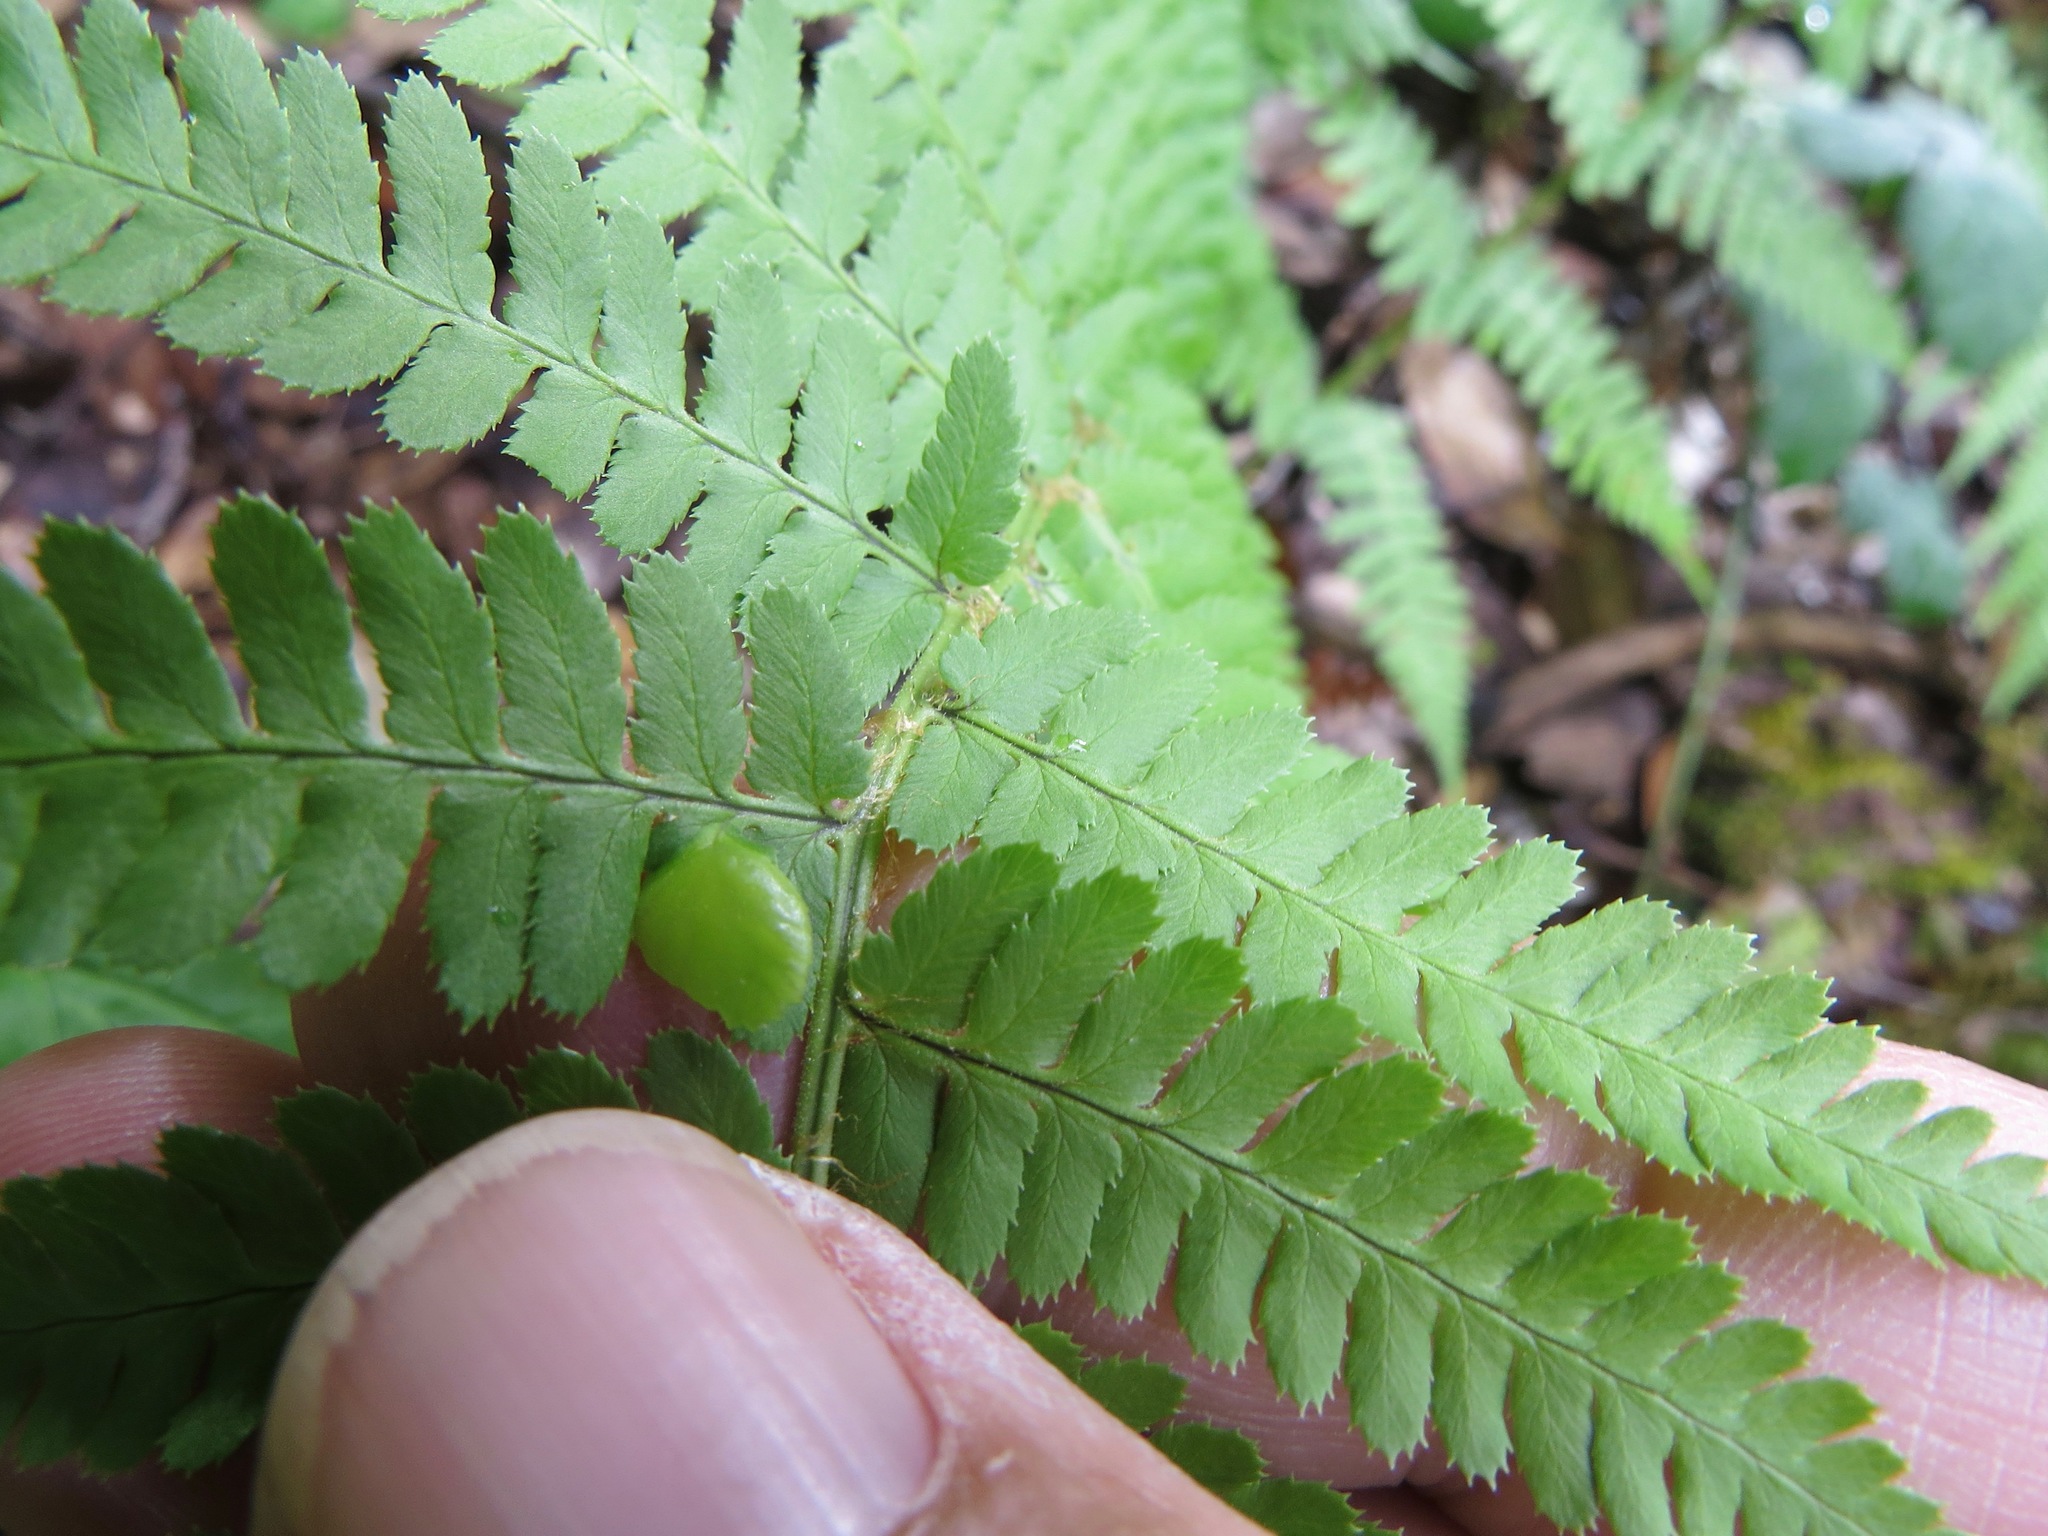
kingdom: Fungi
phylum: Ascomycota
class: Taphrinomycetes
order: Taphrinales
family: Taphrinaceae
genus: Taphrina
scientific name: Taphrina californica
